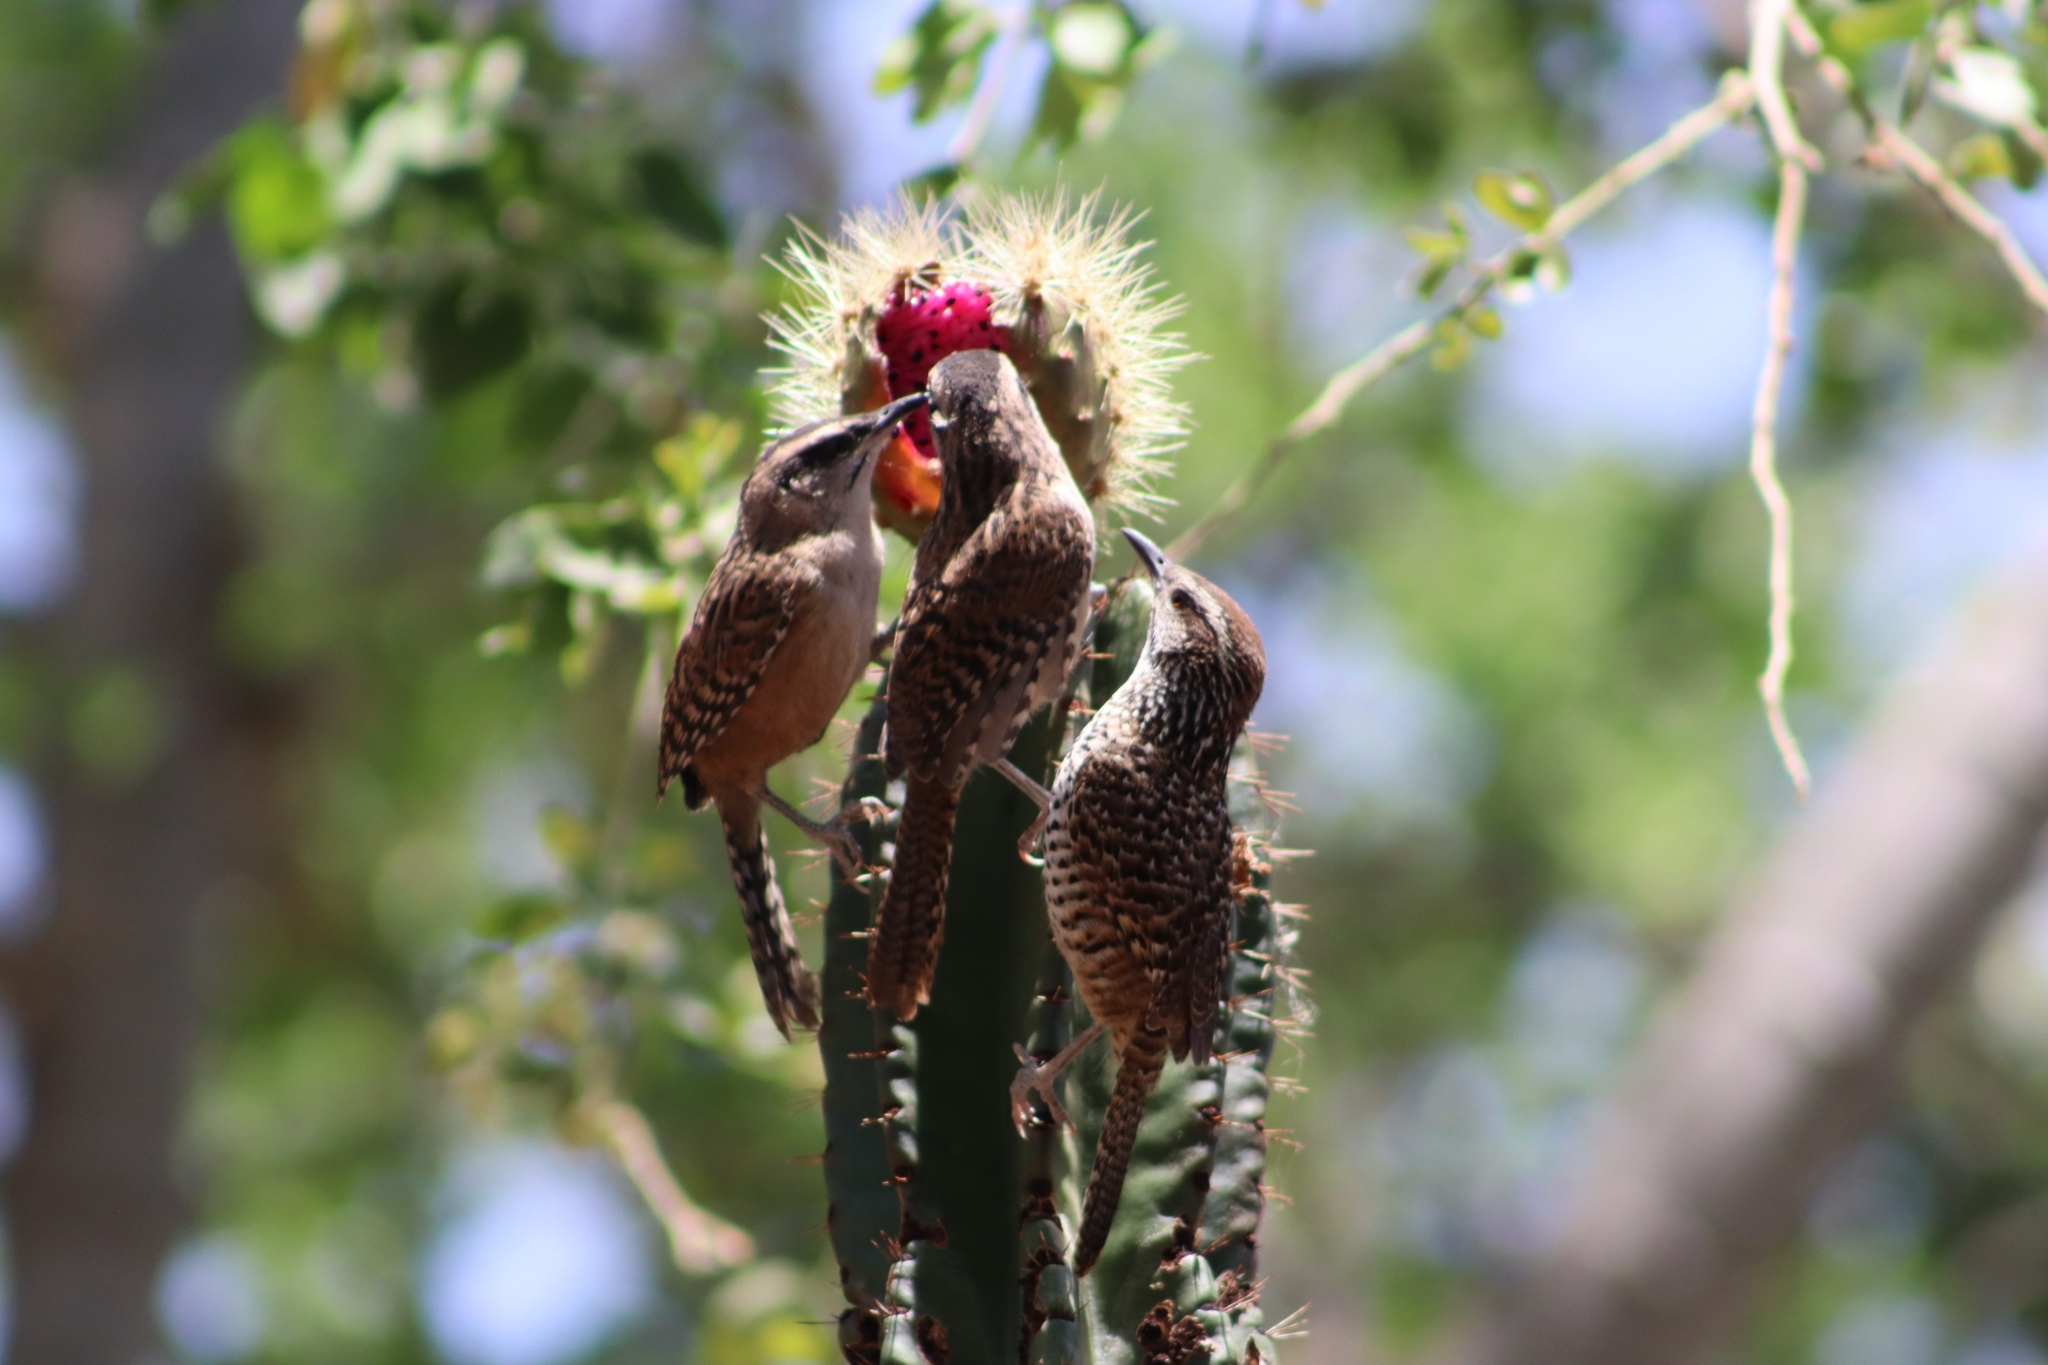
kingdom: Animalia
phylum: Chordata
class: Aves
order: Passeriformes
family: Troglodytidae
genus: Campylorhynchus
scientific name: Campylorhynchus gularis
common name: Spotted wren
